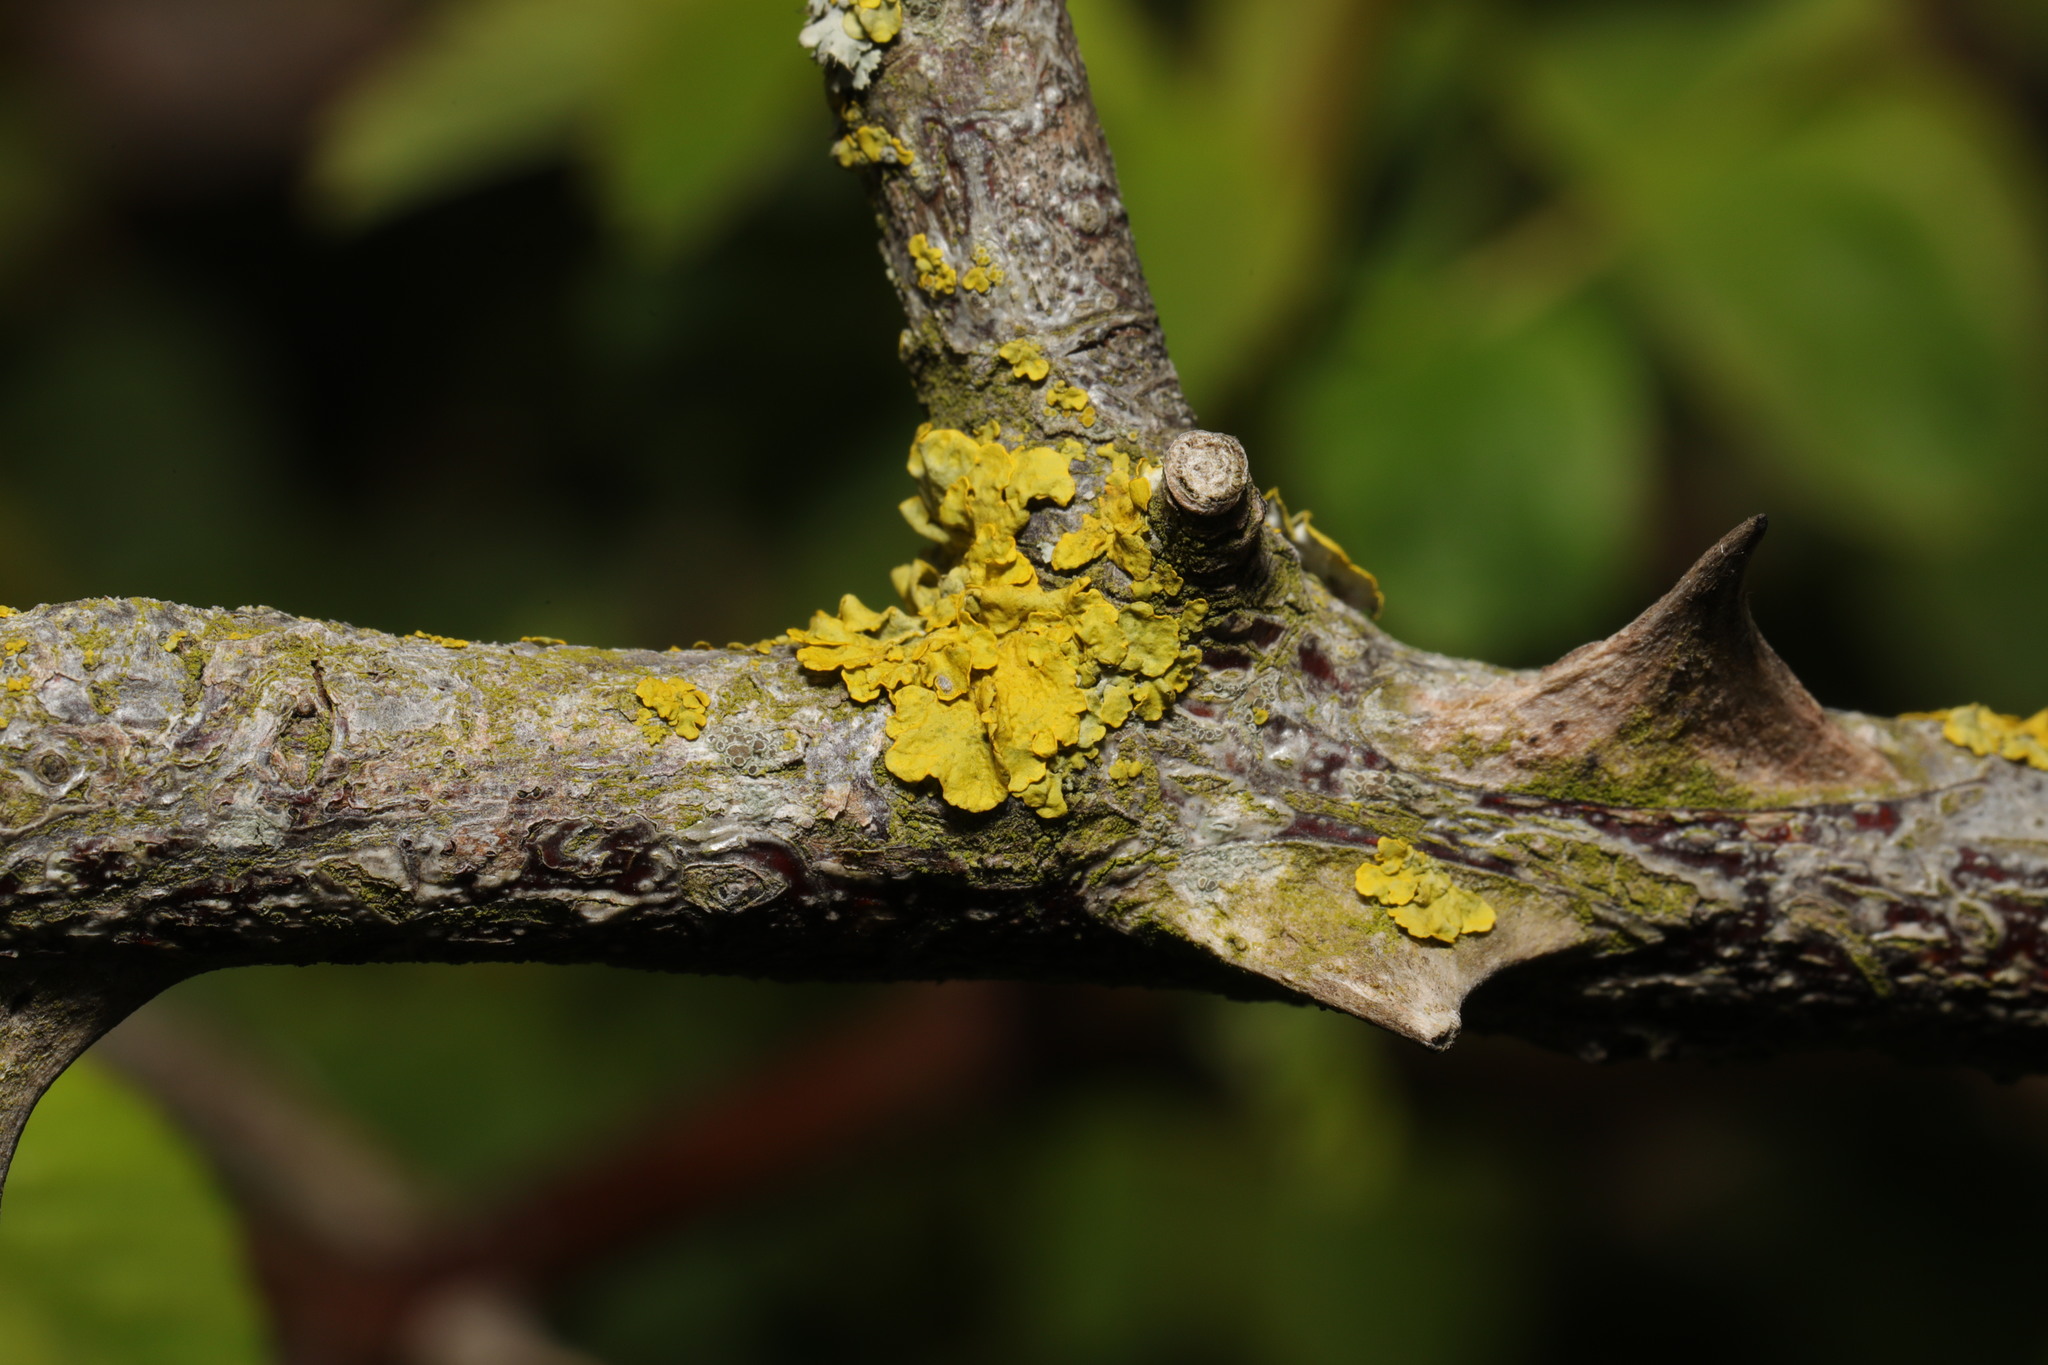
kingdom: Fungi
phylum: Ascomycota
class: Lecanoromycetes
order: Teloschistales
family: Teloschistaceae
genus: Xanthoria
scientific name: Xanthoria parietina
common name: Common orange lichen
